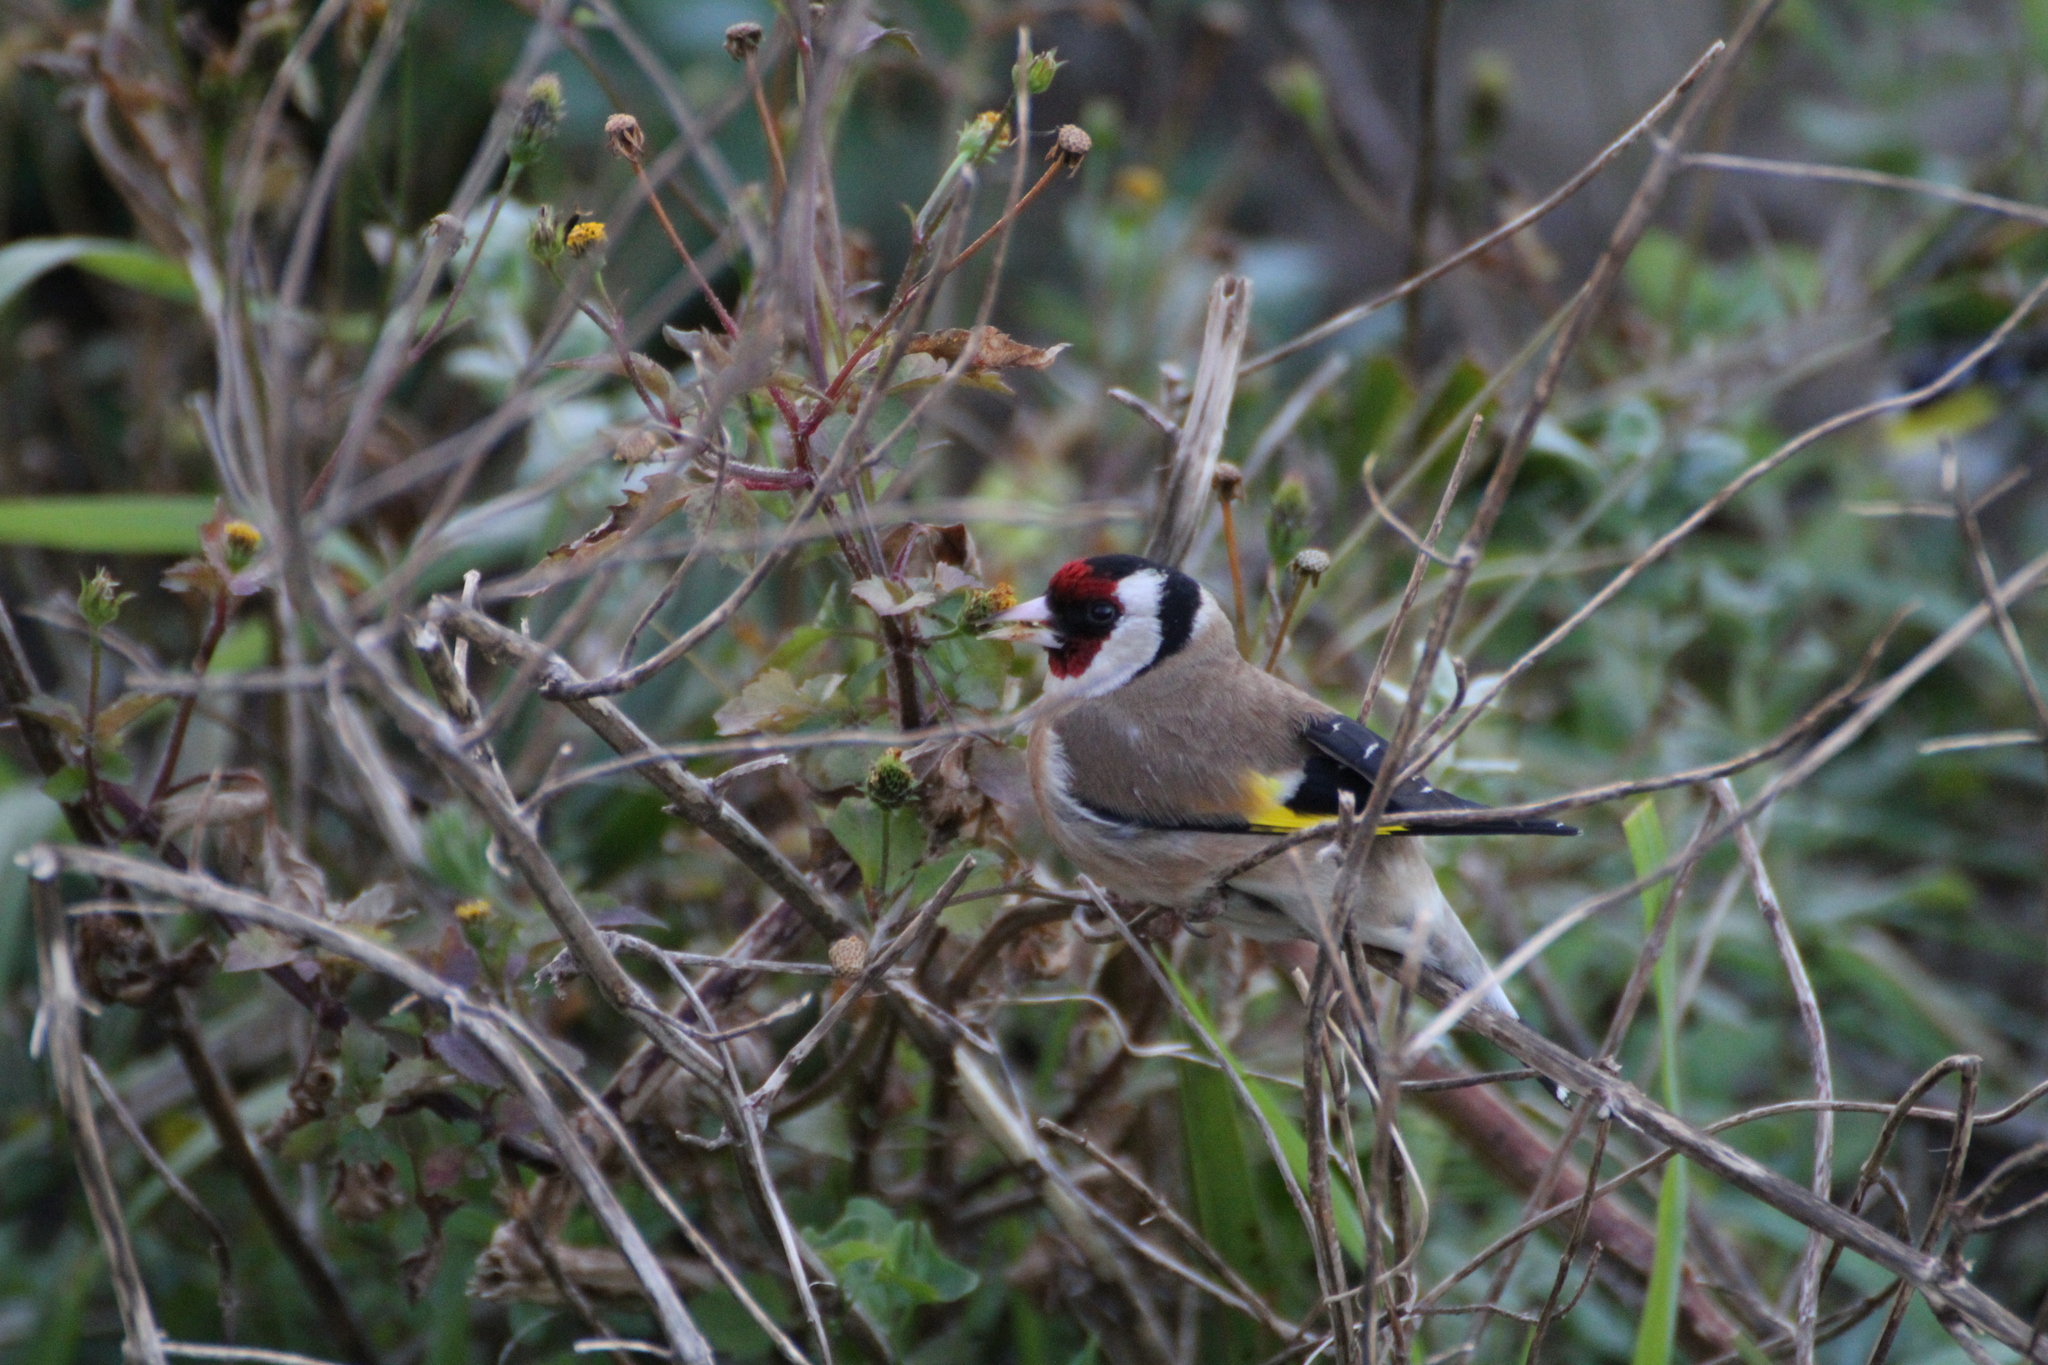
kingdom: Animalia
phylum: Chordata
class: Aves
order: Passeriformes
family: Fringillidae
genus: Carduelis
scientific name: Carduelis carduelis
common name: European goldfinch
